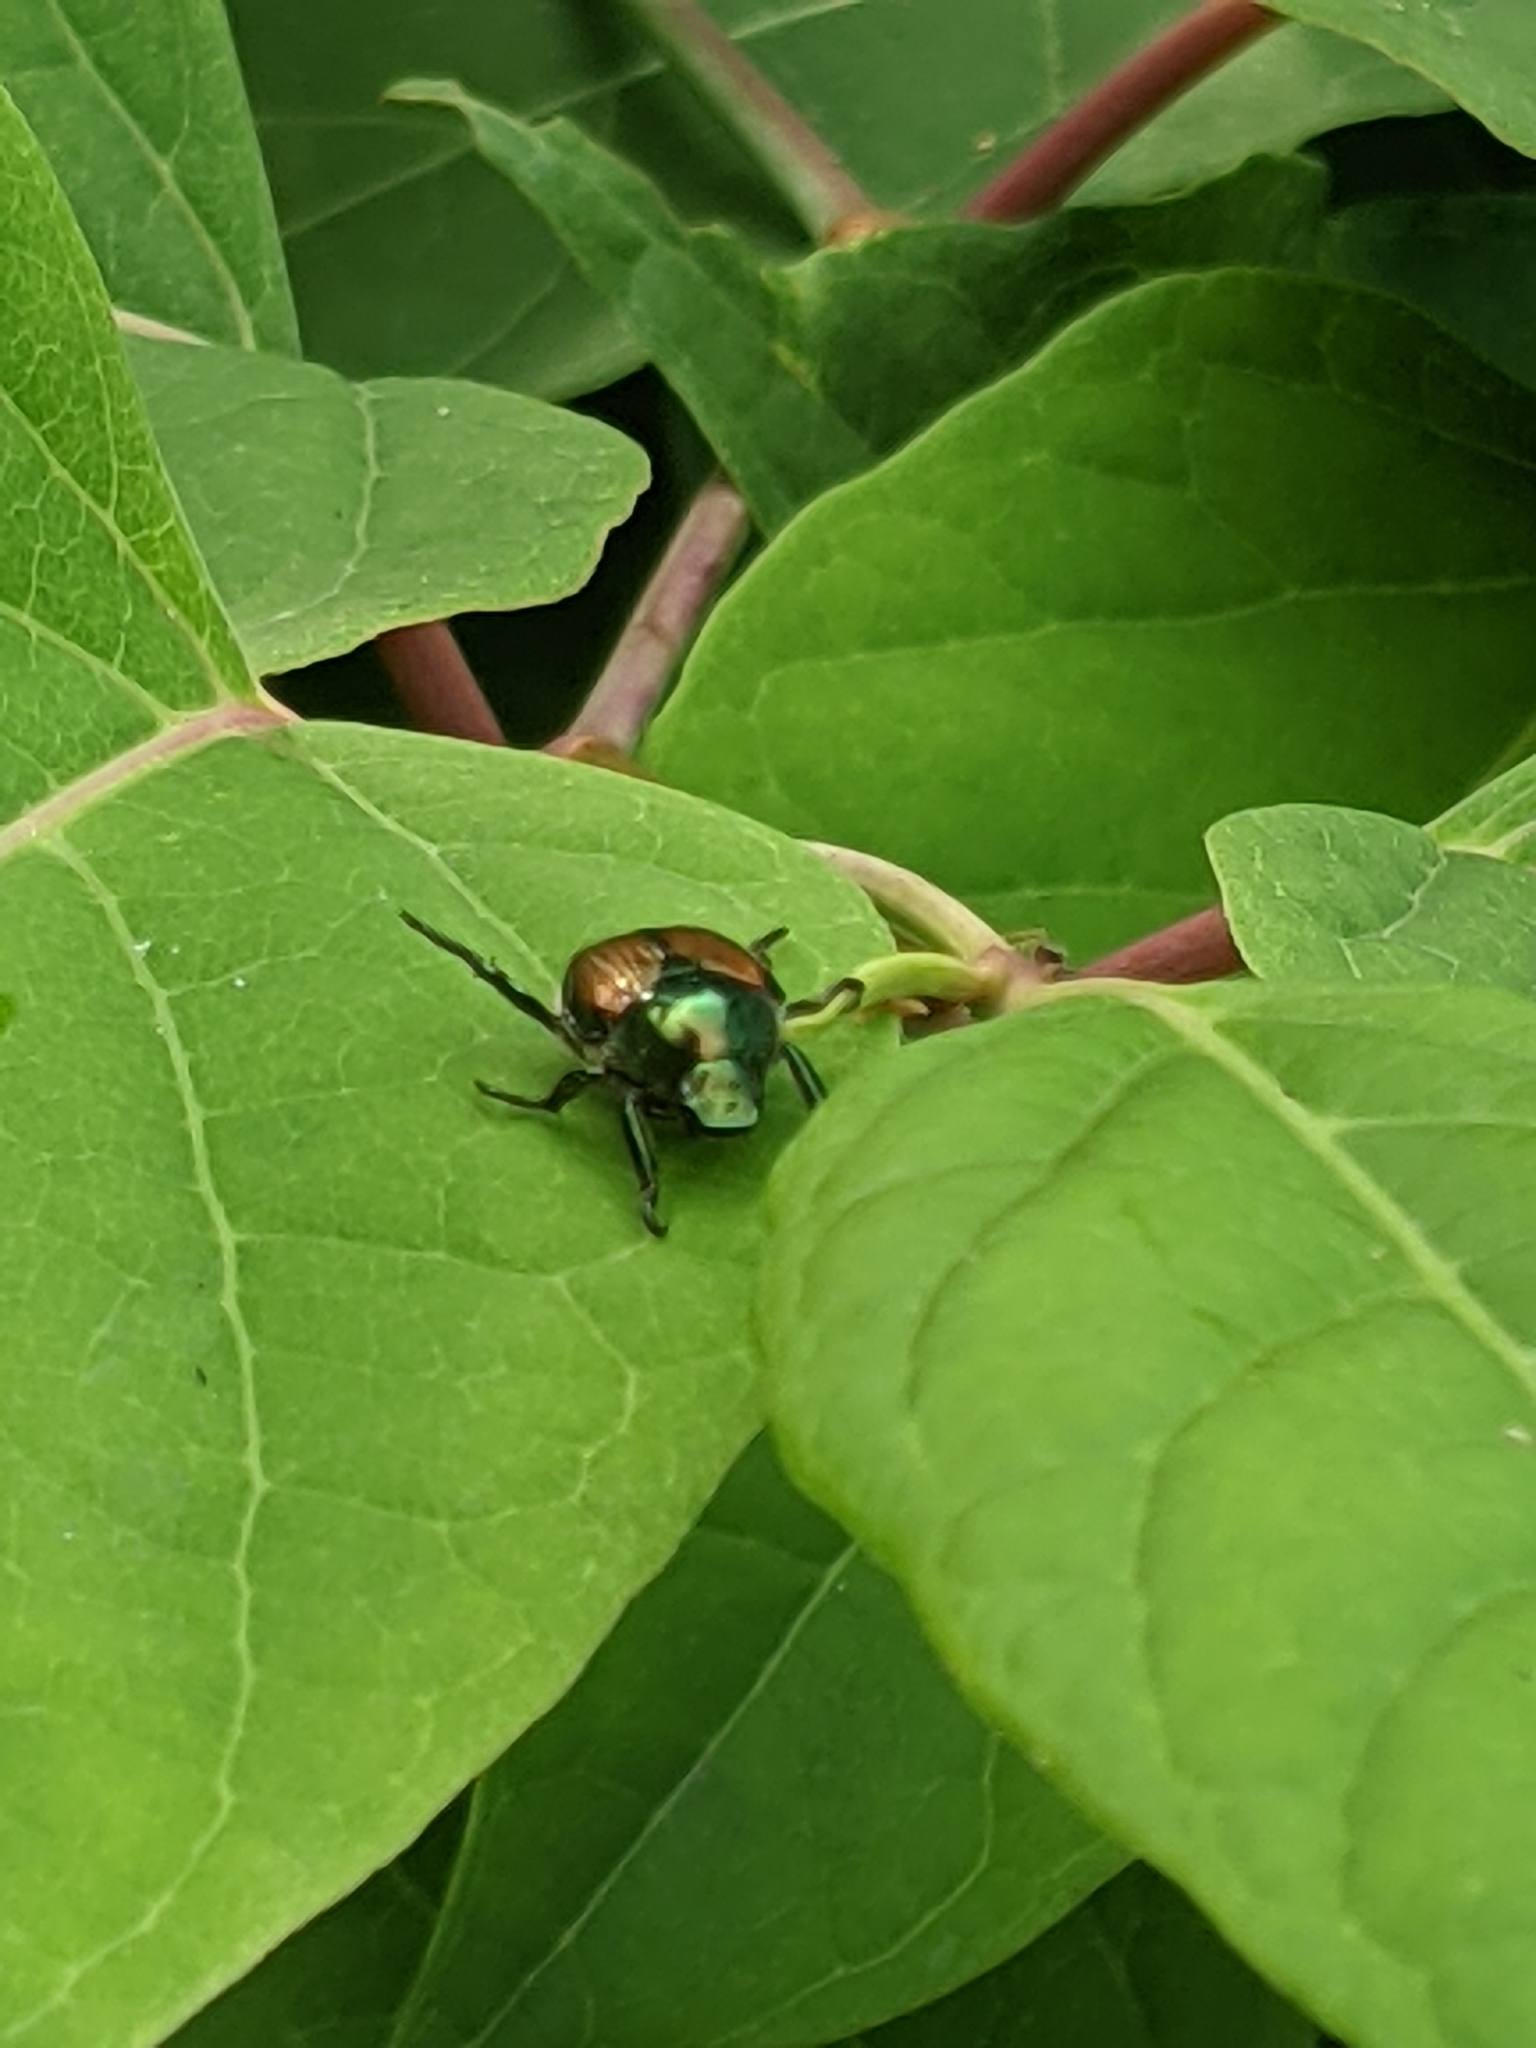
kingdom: Animalia
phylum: Arthropoda
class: Insecta
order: Coleoptera
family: Scarabaeidae
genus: Popillia
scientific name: Popillia japonica
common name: Japanese beetle
